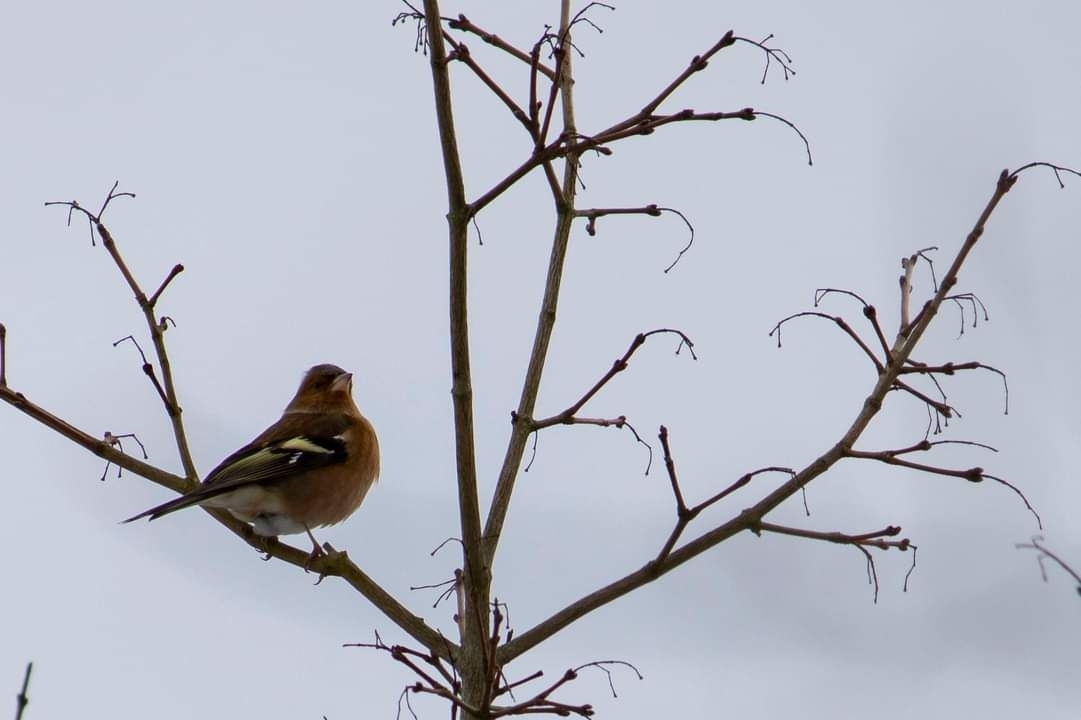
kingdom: Animalia
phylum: Chordata
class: Aves
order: Passeriformes
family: Fringillidae
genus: Fringilla
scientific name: Fringilla coelebs
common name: Common chaffinch
